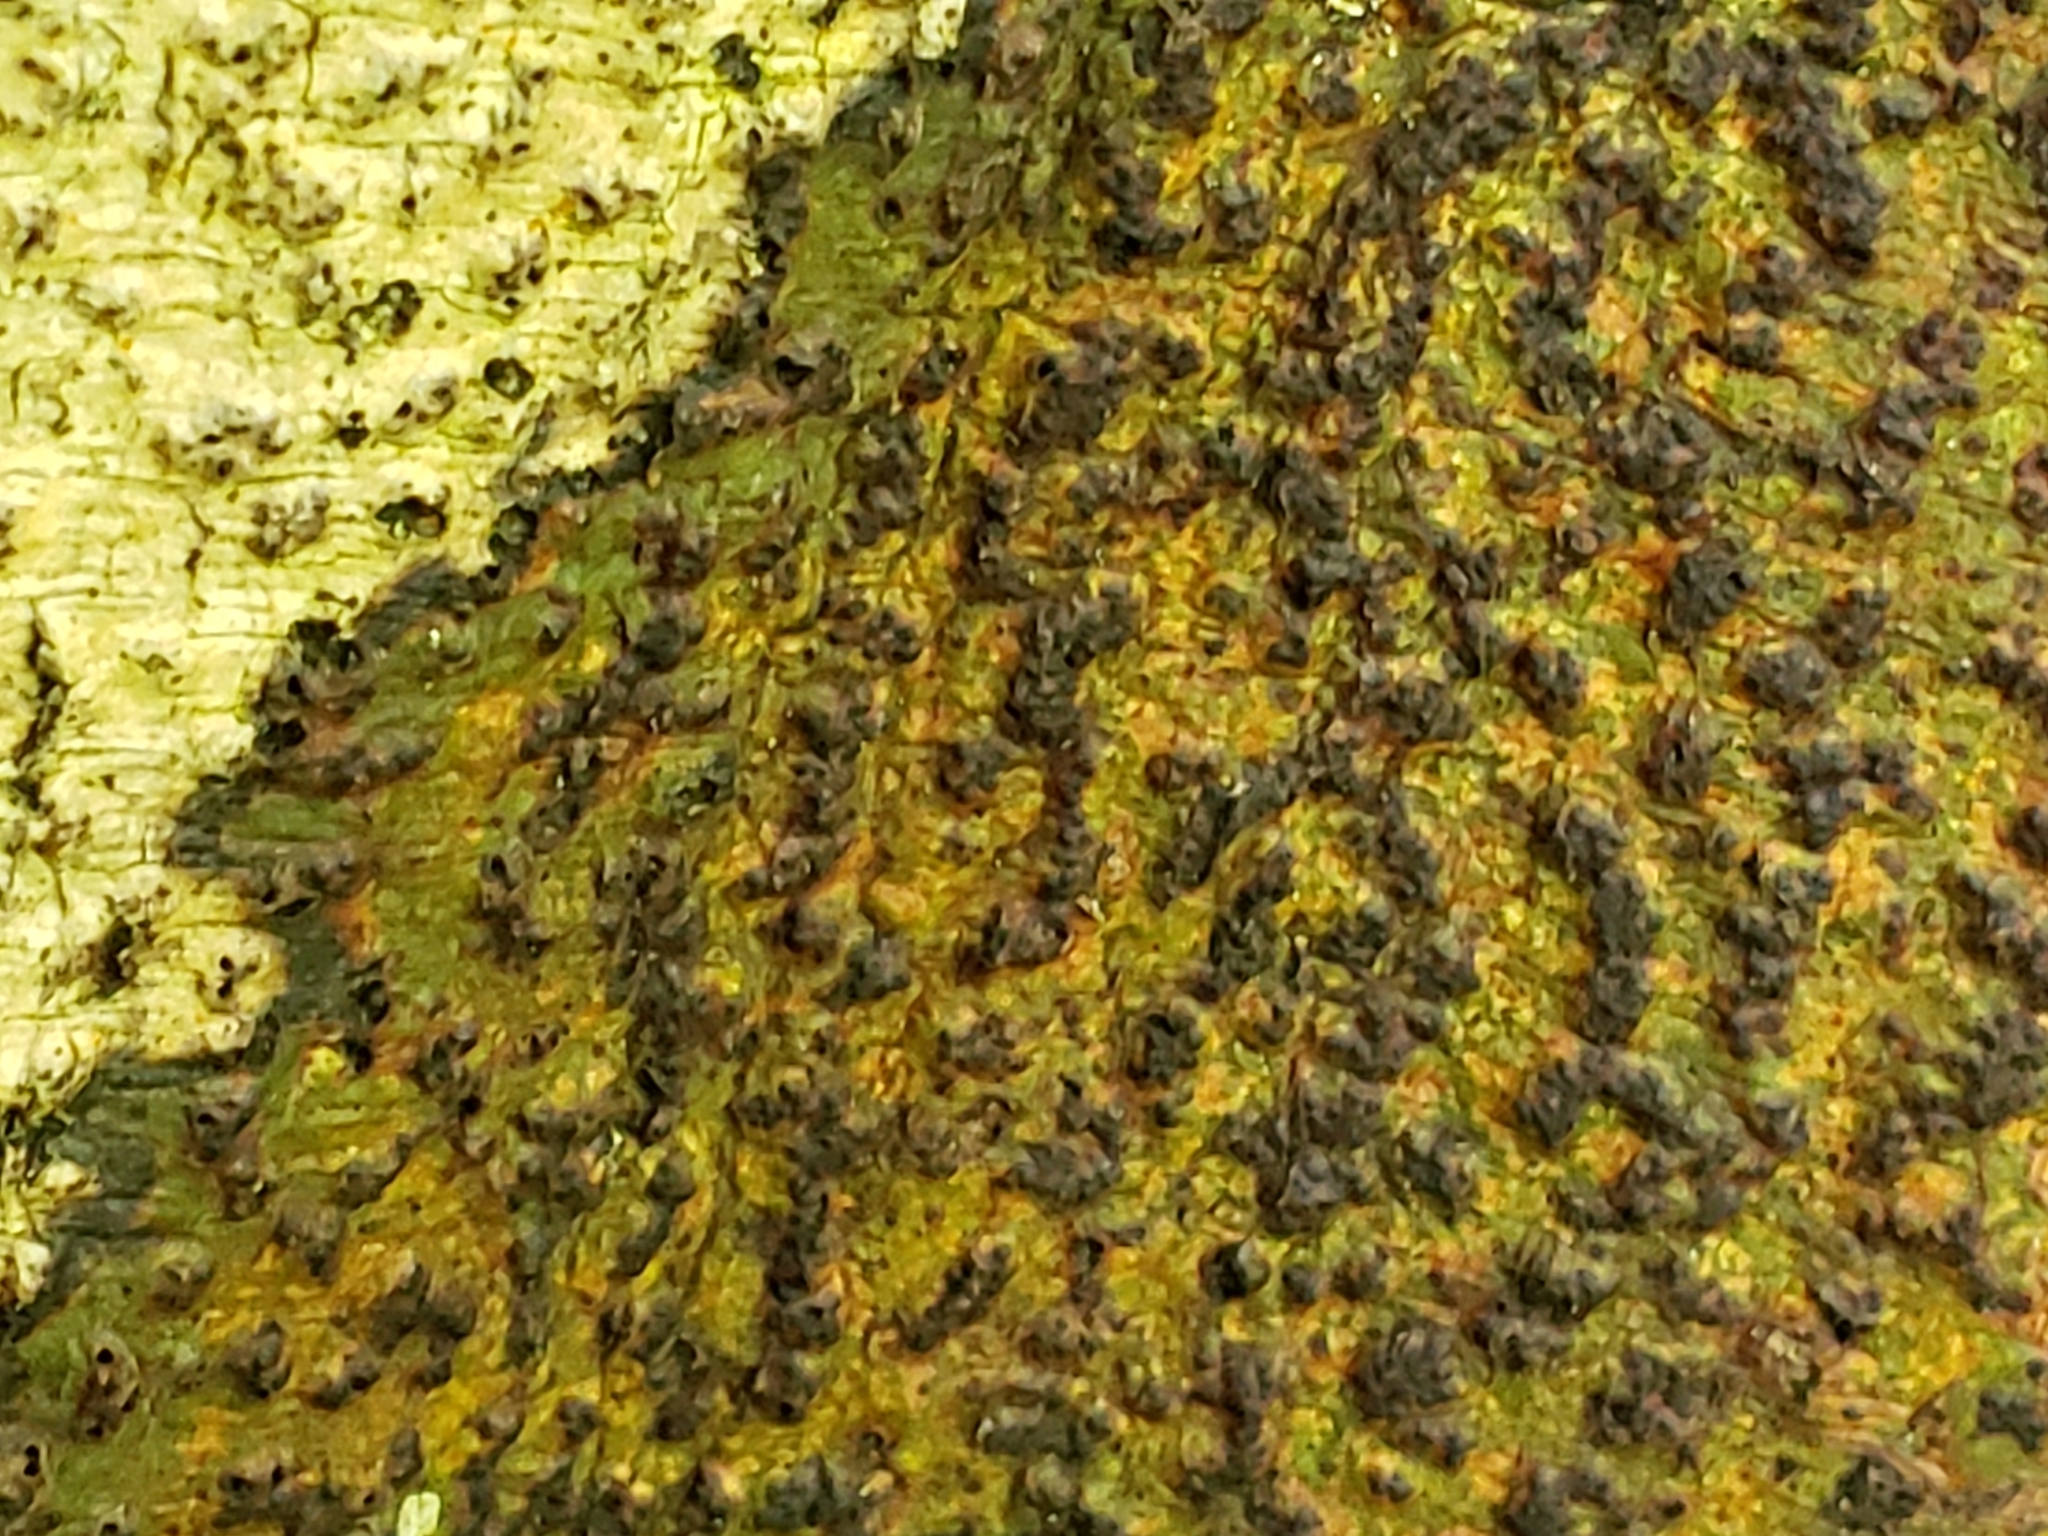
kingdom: Fungi
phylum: Ascomycota
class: Dothideomycetes
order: Trypetheliales
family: Trypetheliaceae
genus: Viridothelium
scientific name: Viridothelium virens
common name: Speckled blister lichen
